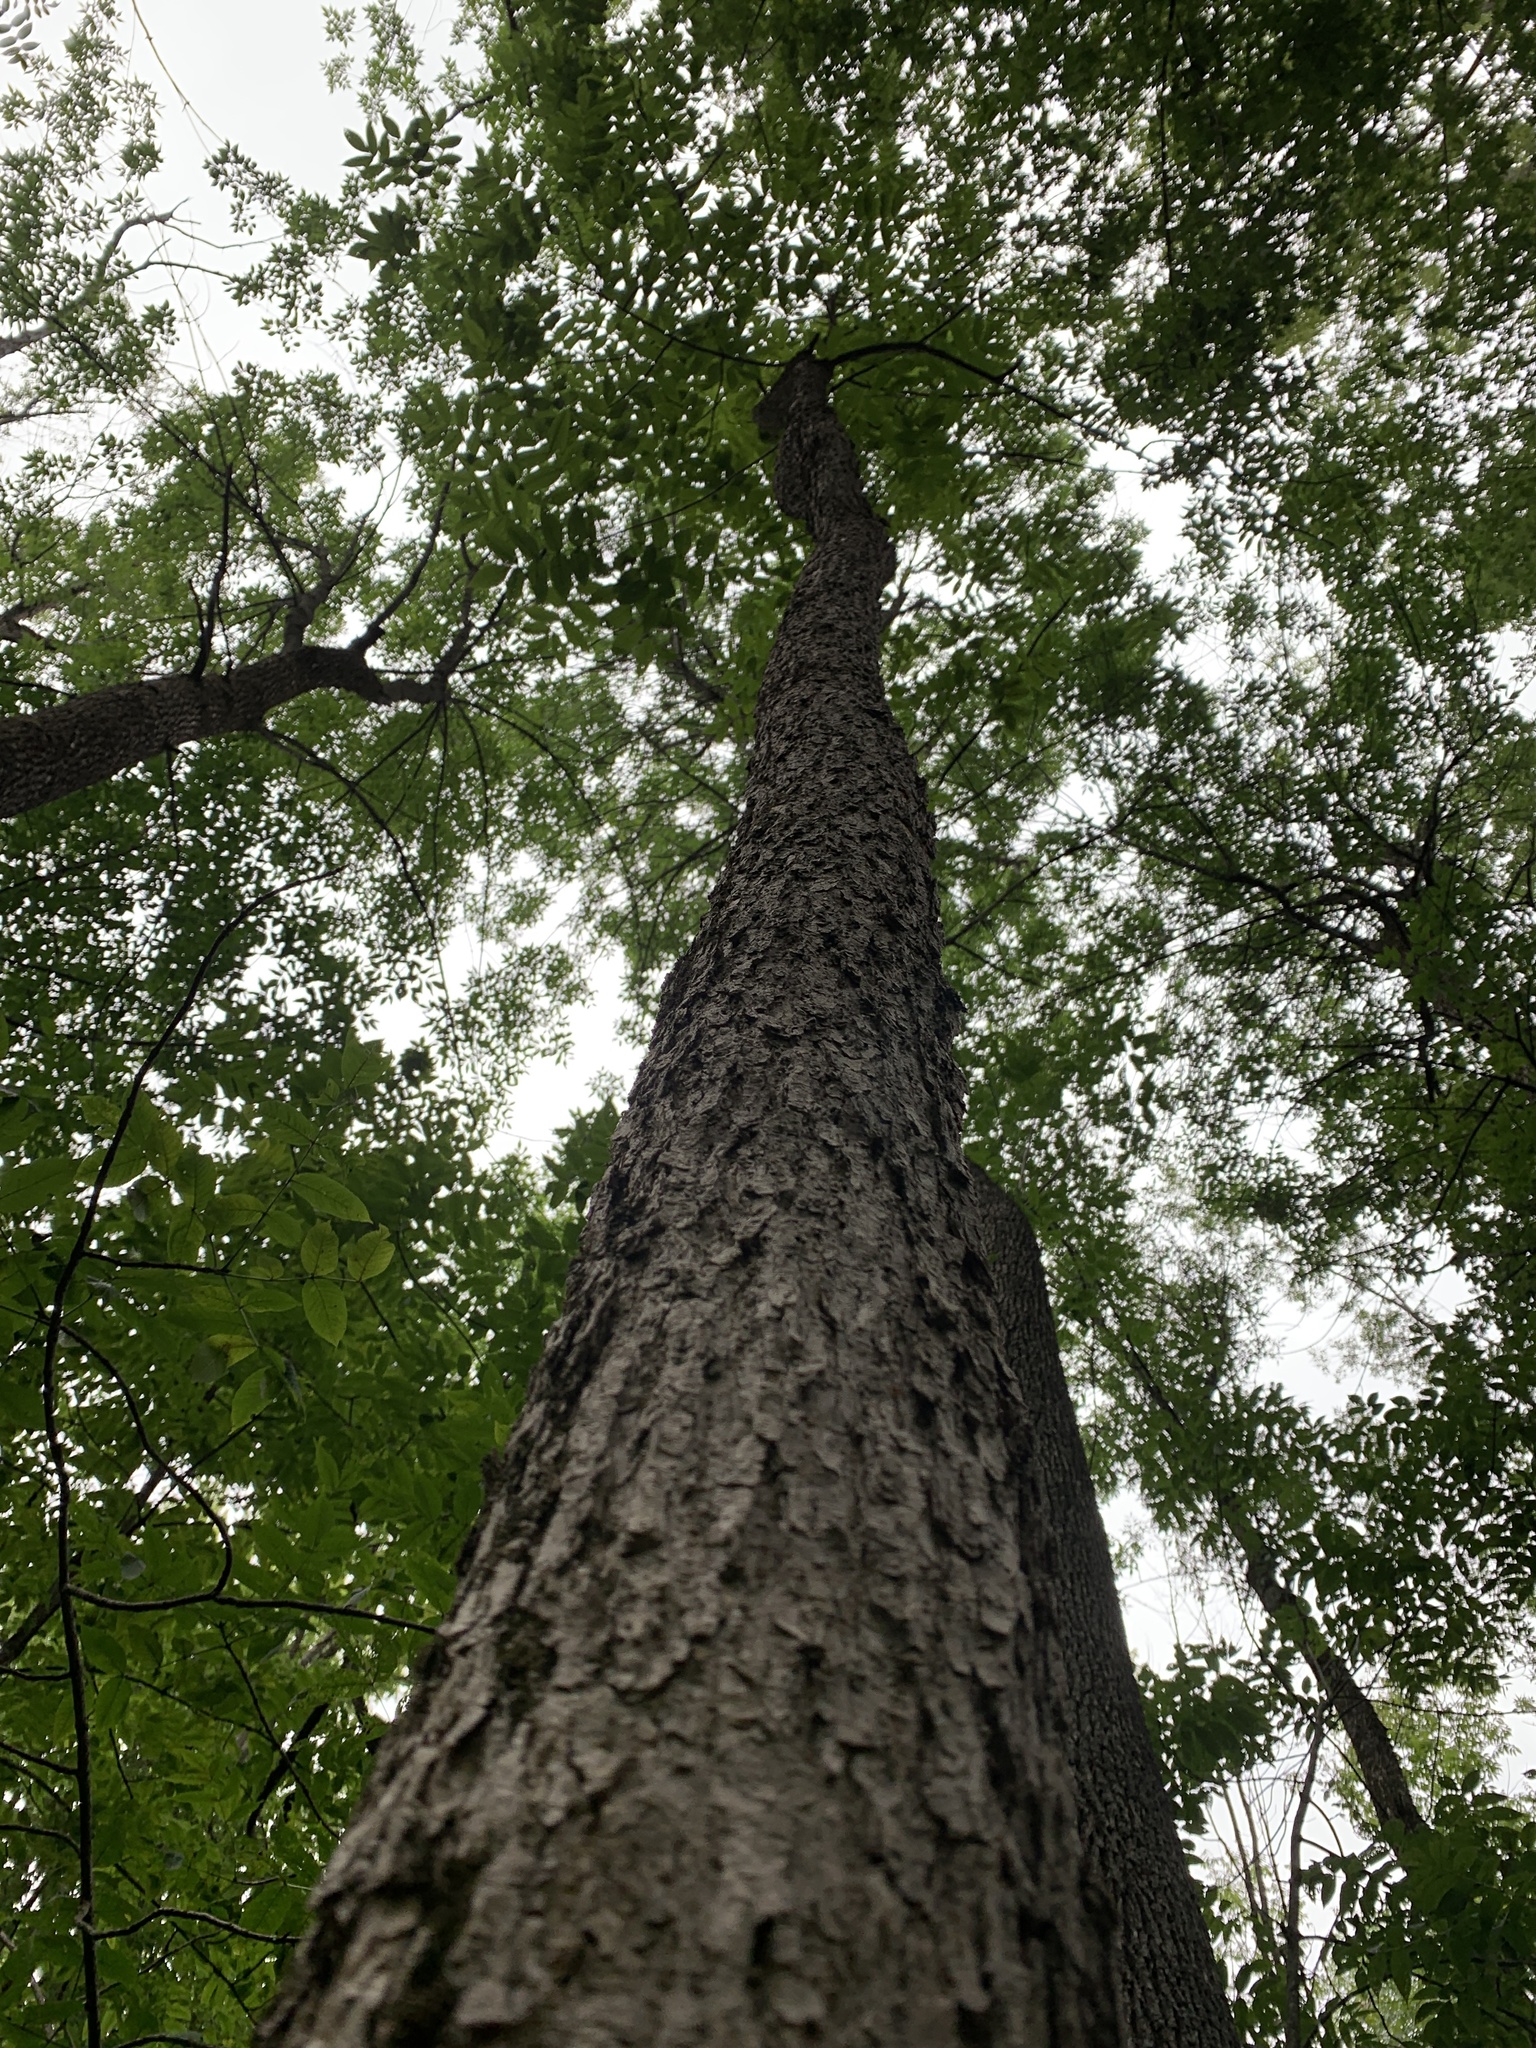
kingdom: Plantae
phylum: Tracheophyta
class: Magnoliopsida
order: Lamiales
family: Oleaceae
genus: Fraxinus
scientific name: Fraxinus nigra
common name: Black ash
